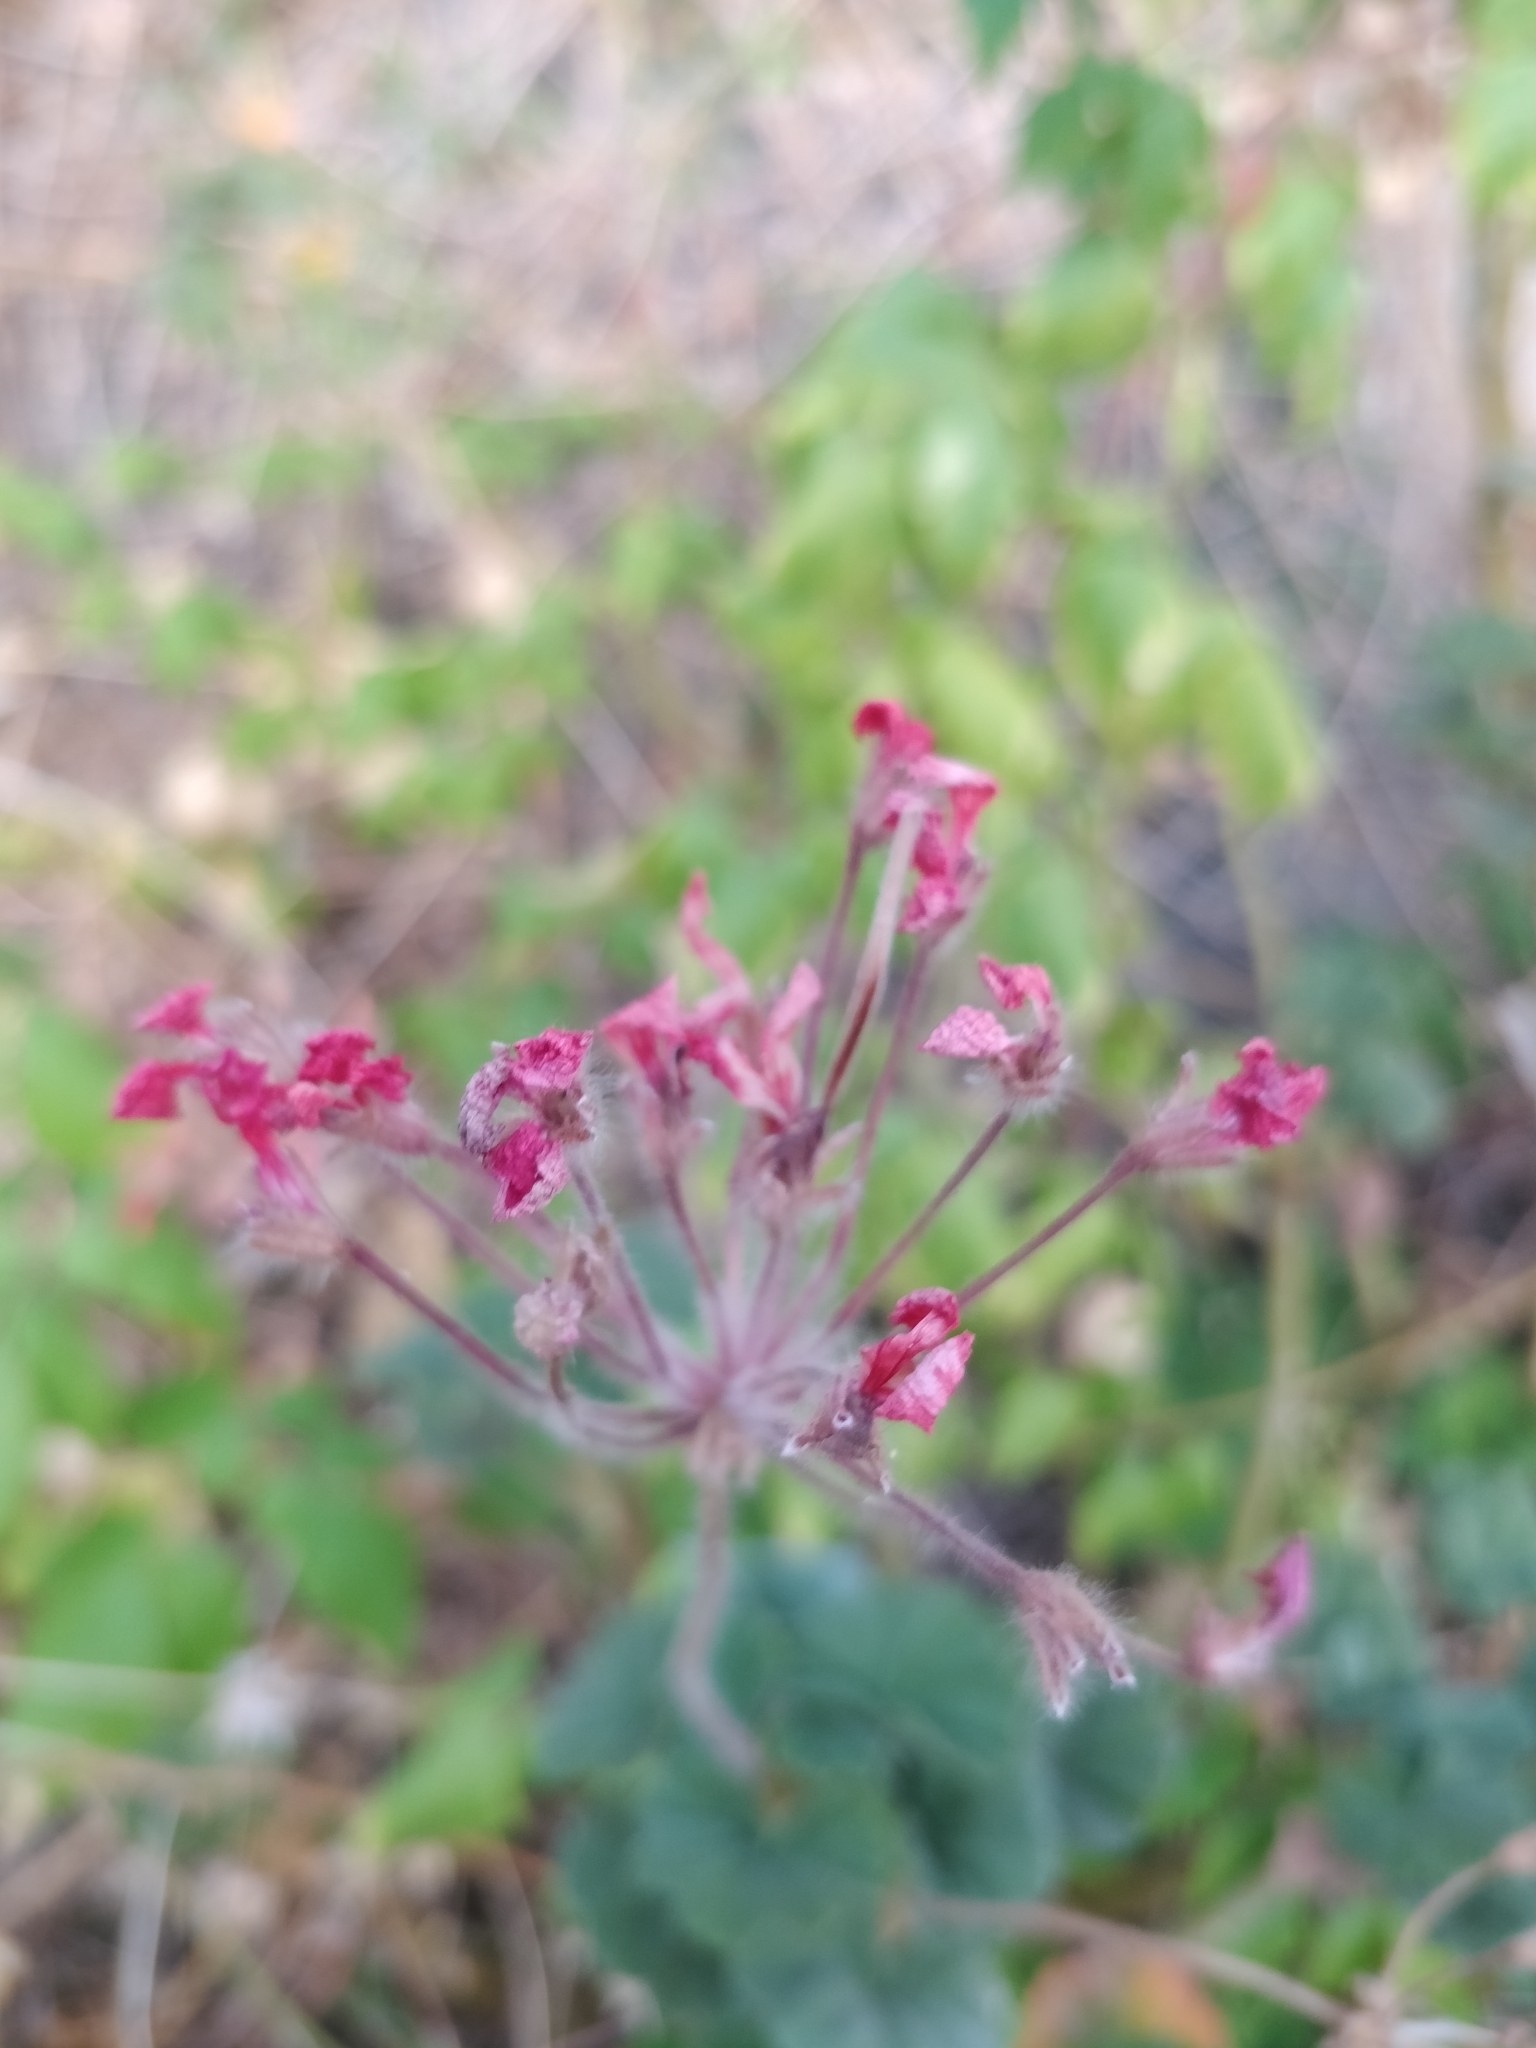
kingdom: Plantae
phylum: Tracheophyta
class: Magnoliopsida
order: Geraniales
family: Geraniaceae
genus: Pelargonium
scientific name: Pelargonium hybridum
